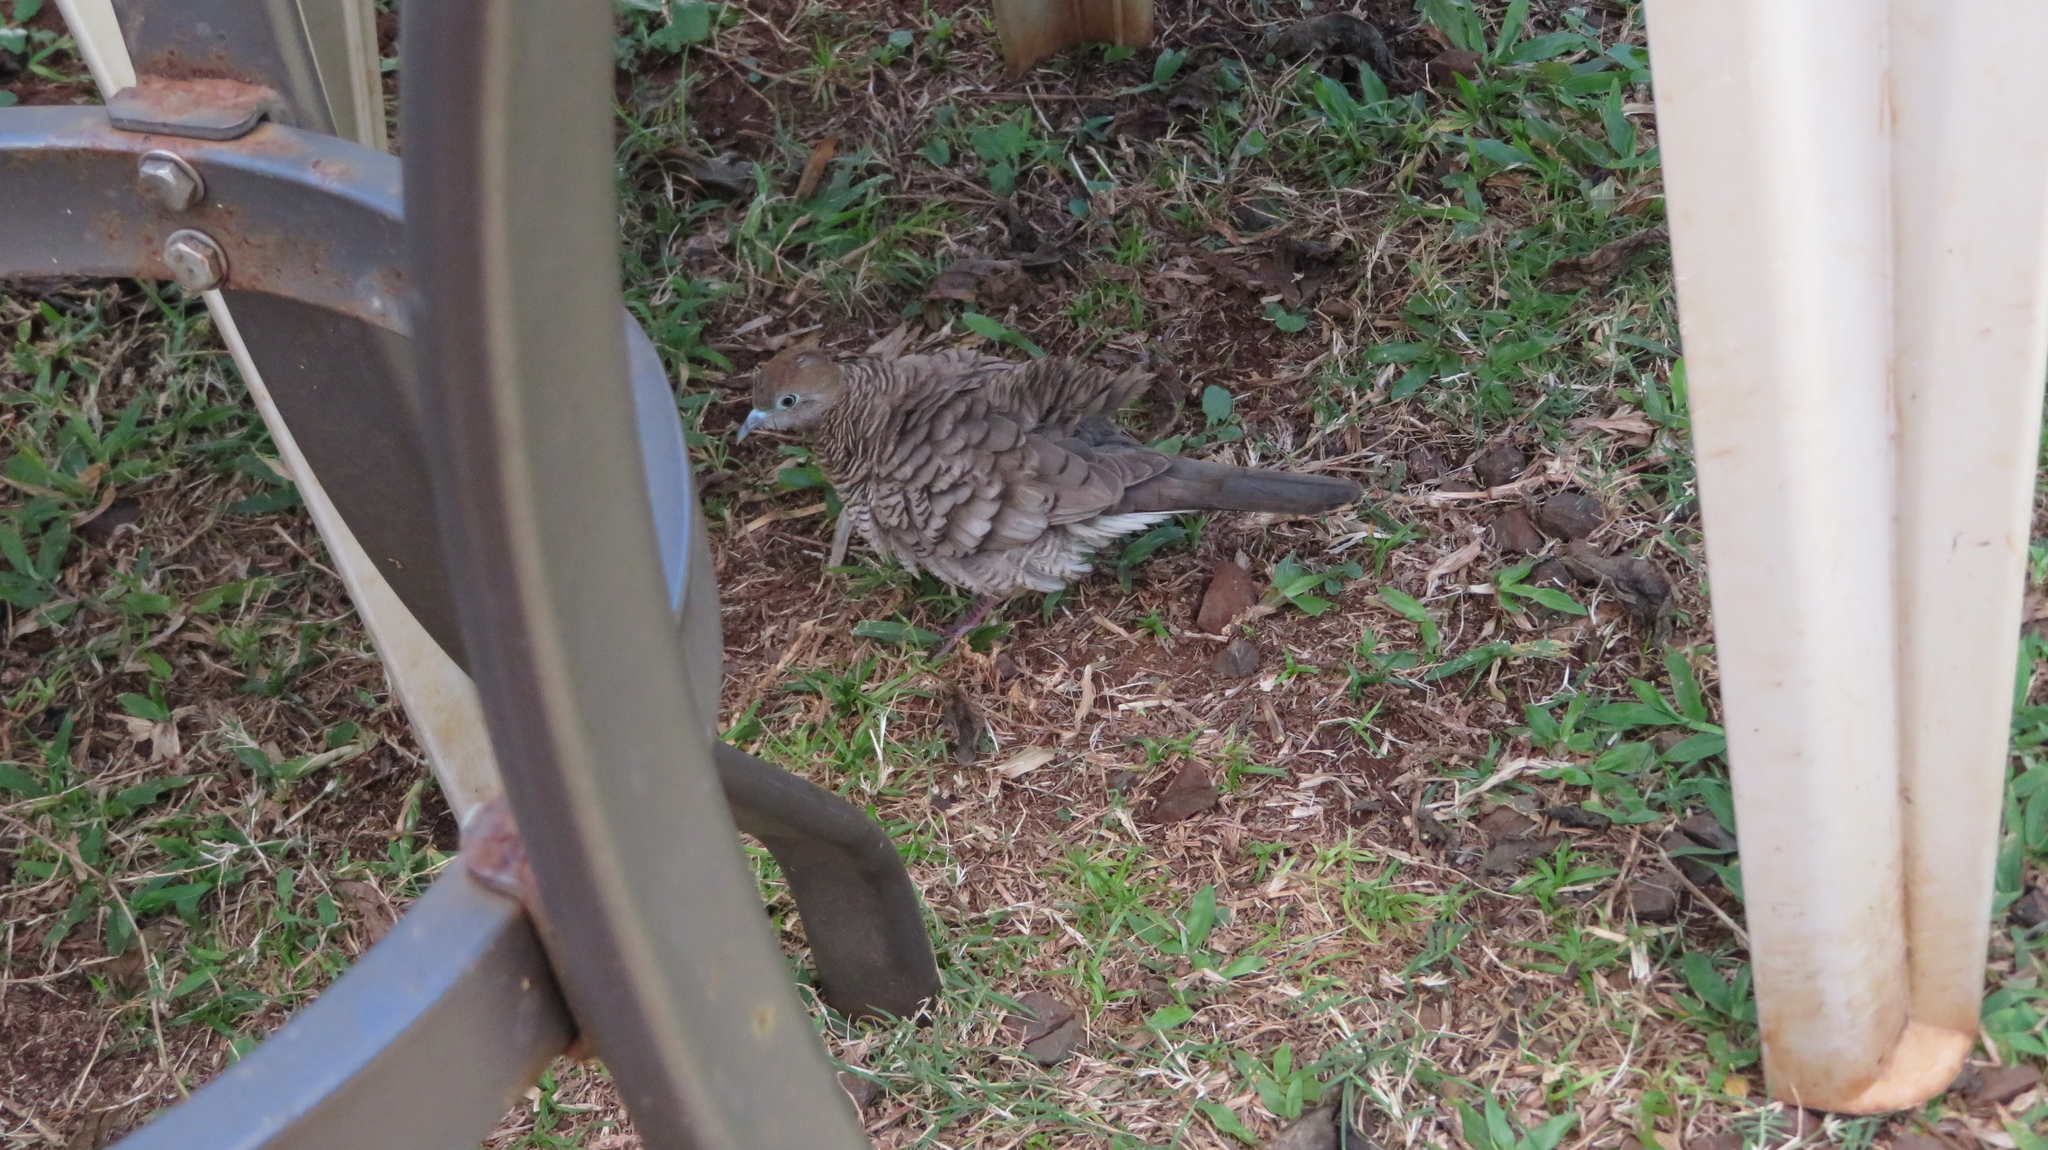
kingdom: Animalia
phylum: Chordata
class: Aves
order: Columbiformes
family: Columbidae
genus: Geopelia
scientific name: Geopelia striata
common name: Zebra dove
